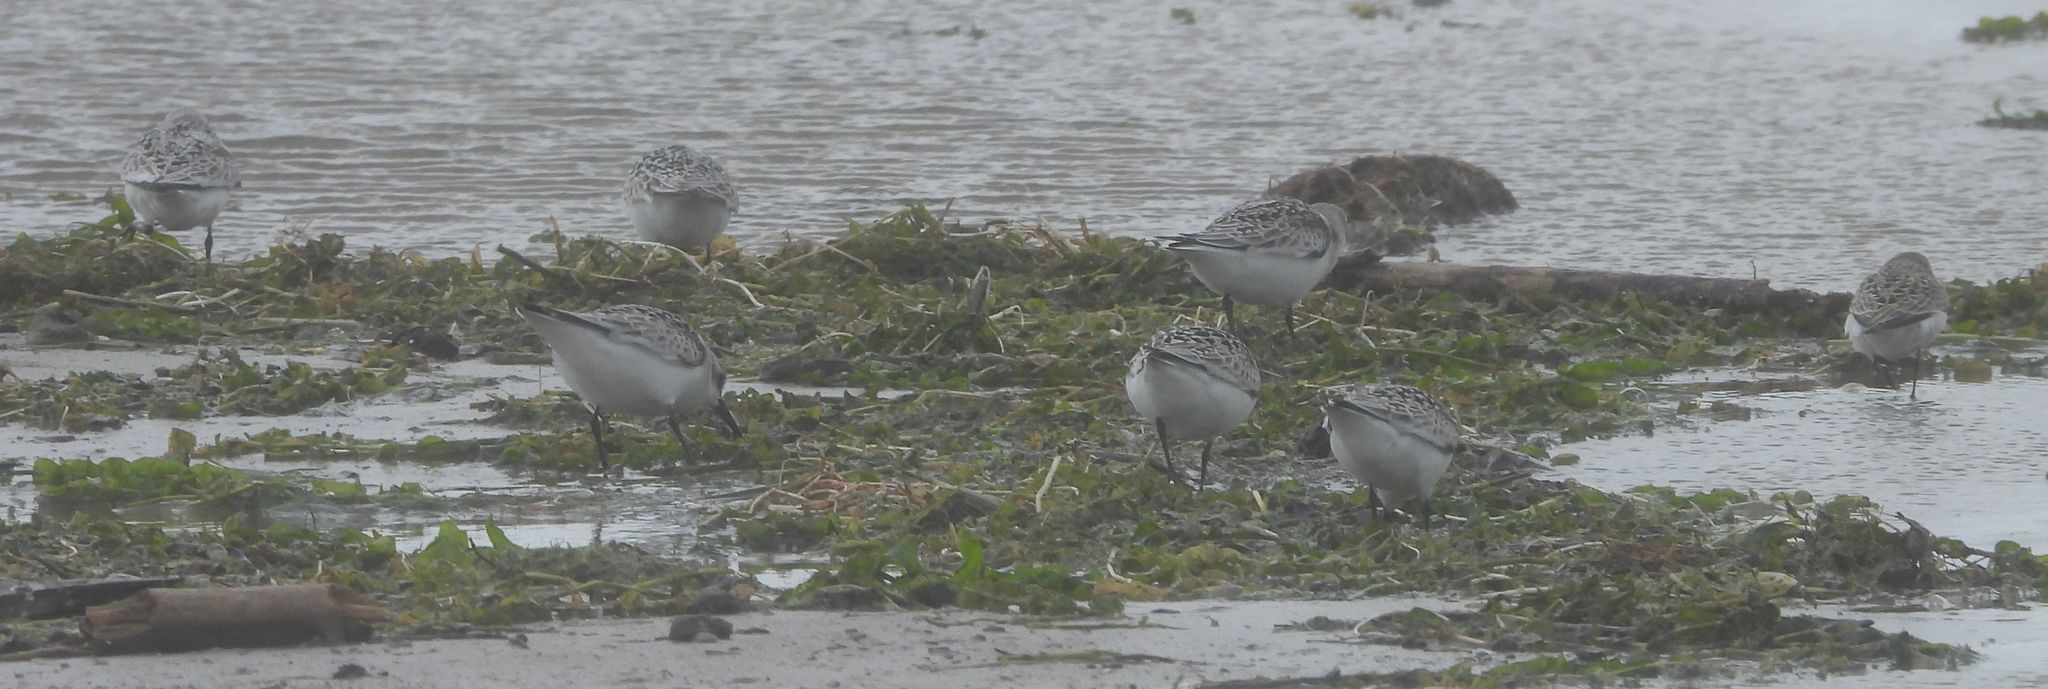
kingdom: Animalia
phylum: Chordata
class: Aves
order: Charadriiformes
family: Scolopacidae
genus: Calidris
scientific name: Calidris alba
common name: Sanderling
